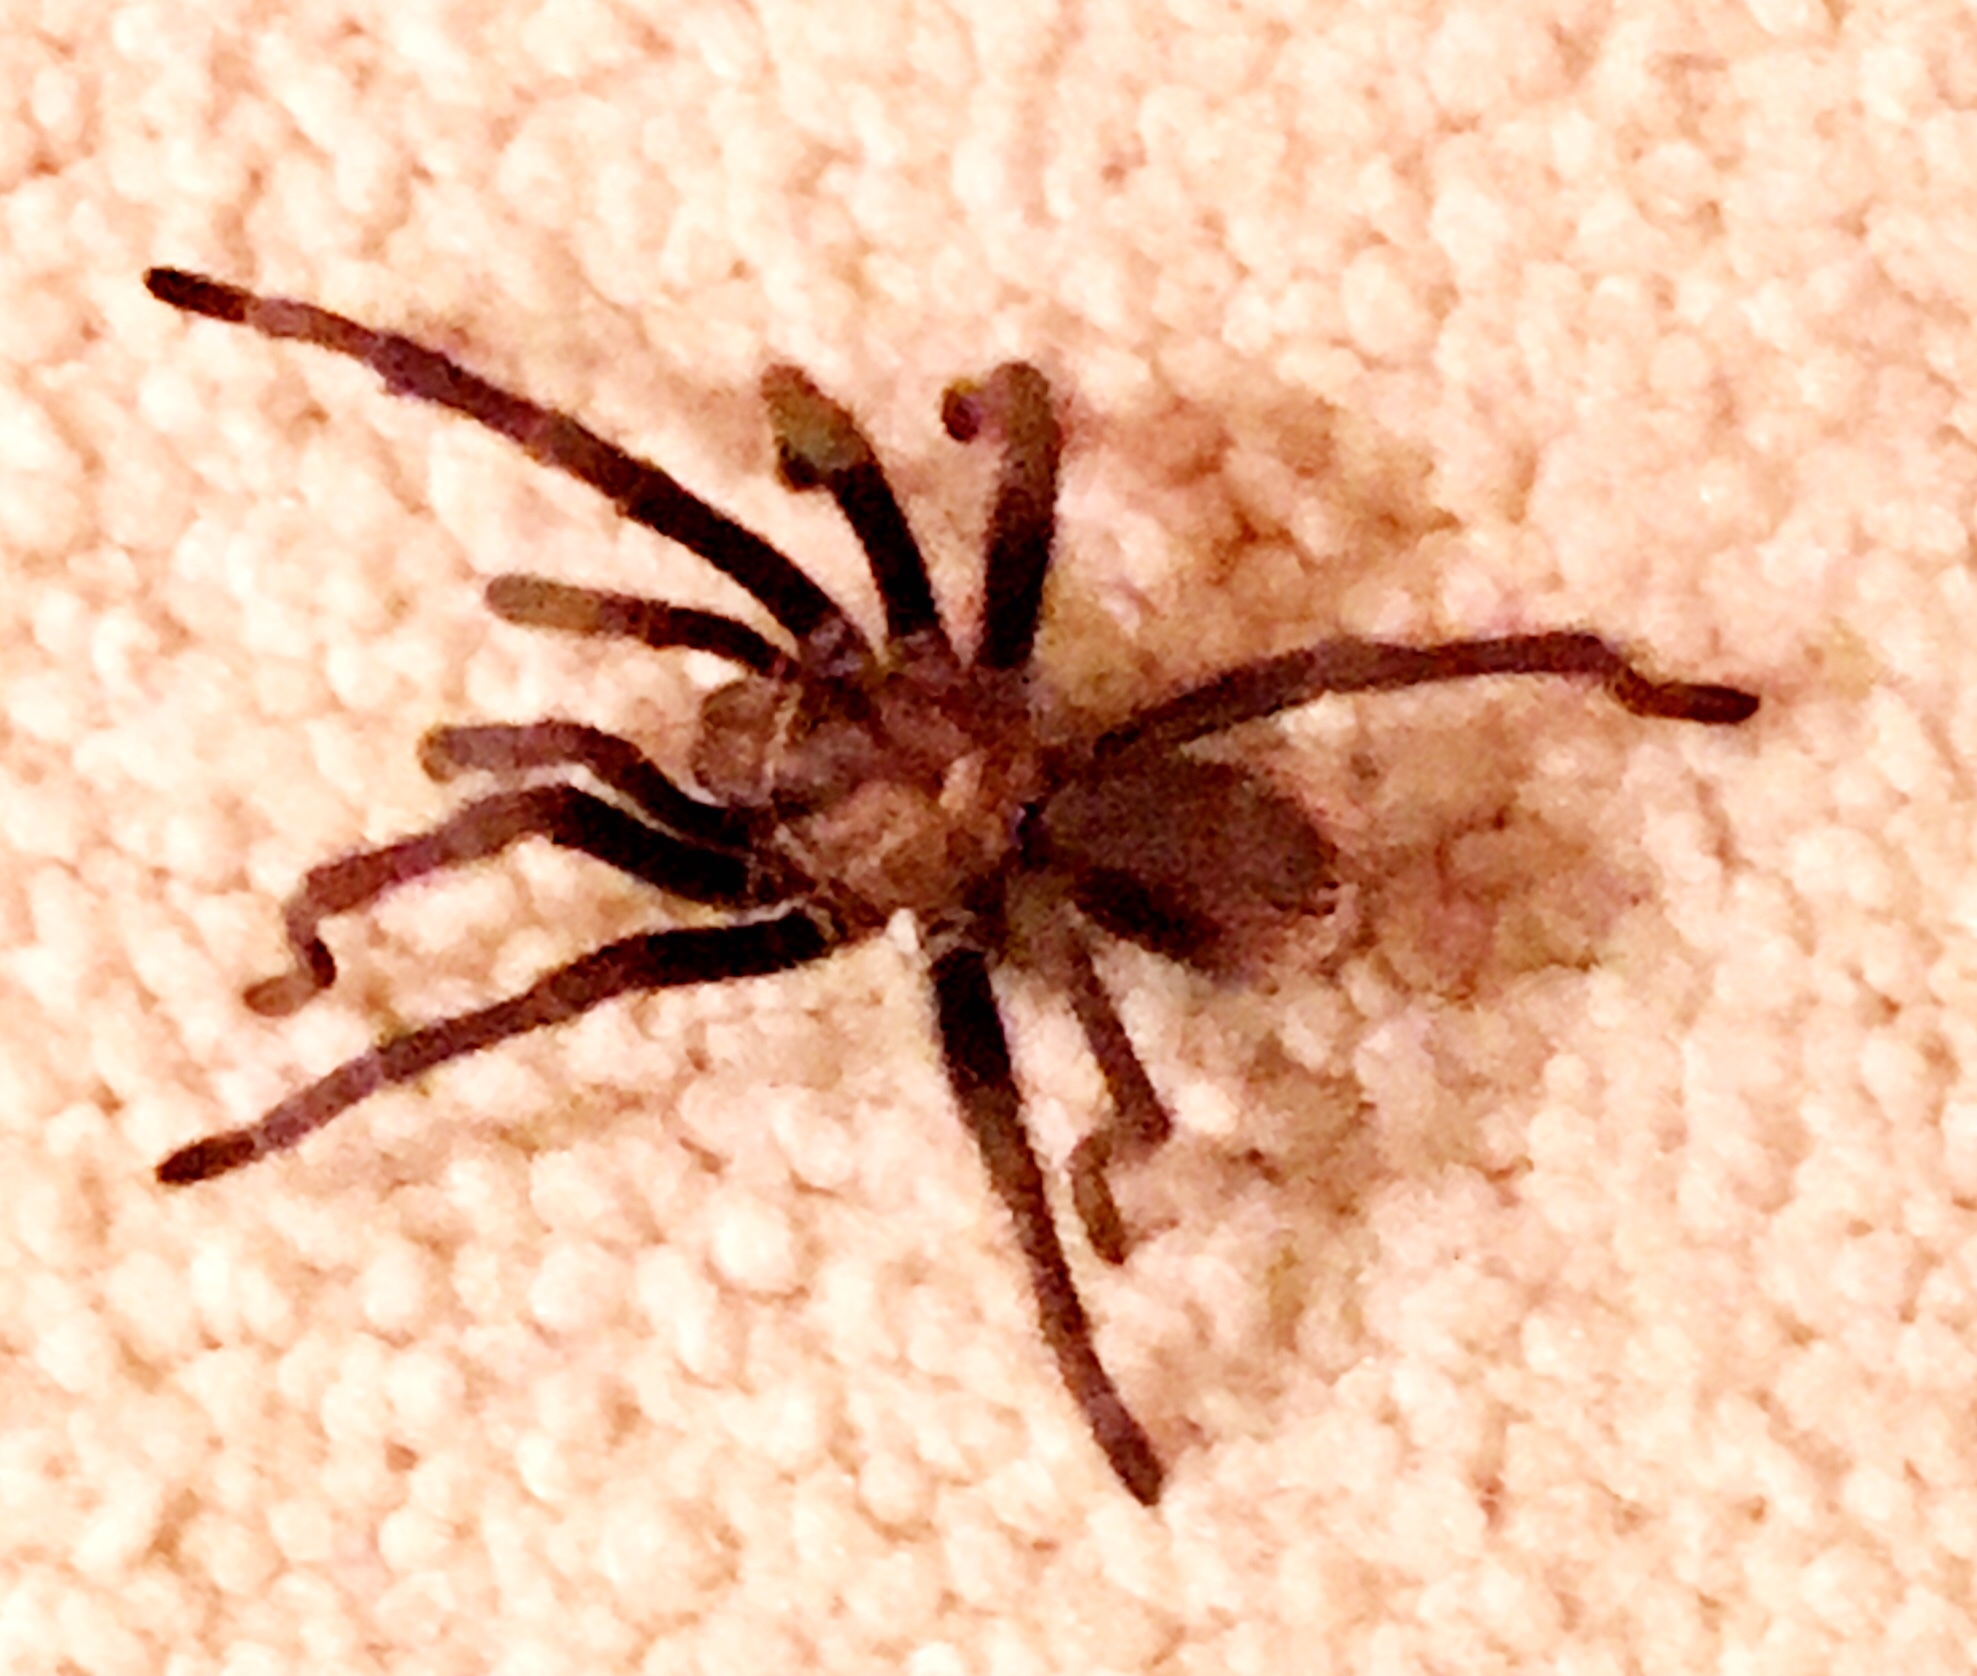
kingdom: Animalia
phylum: Arthropoda
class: Arachnida
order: Araneae
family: Theraphosidae
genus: Aphonopelma
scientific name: Aphonopelma eutylenum
